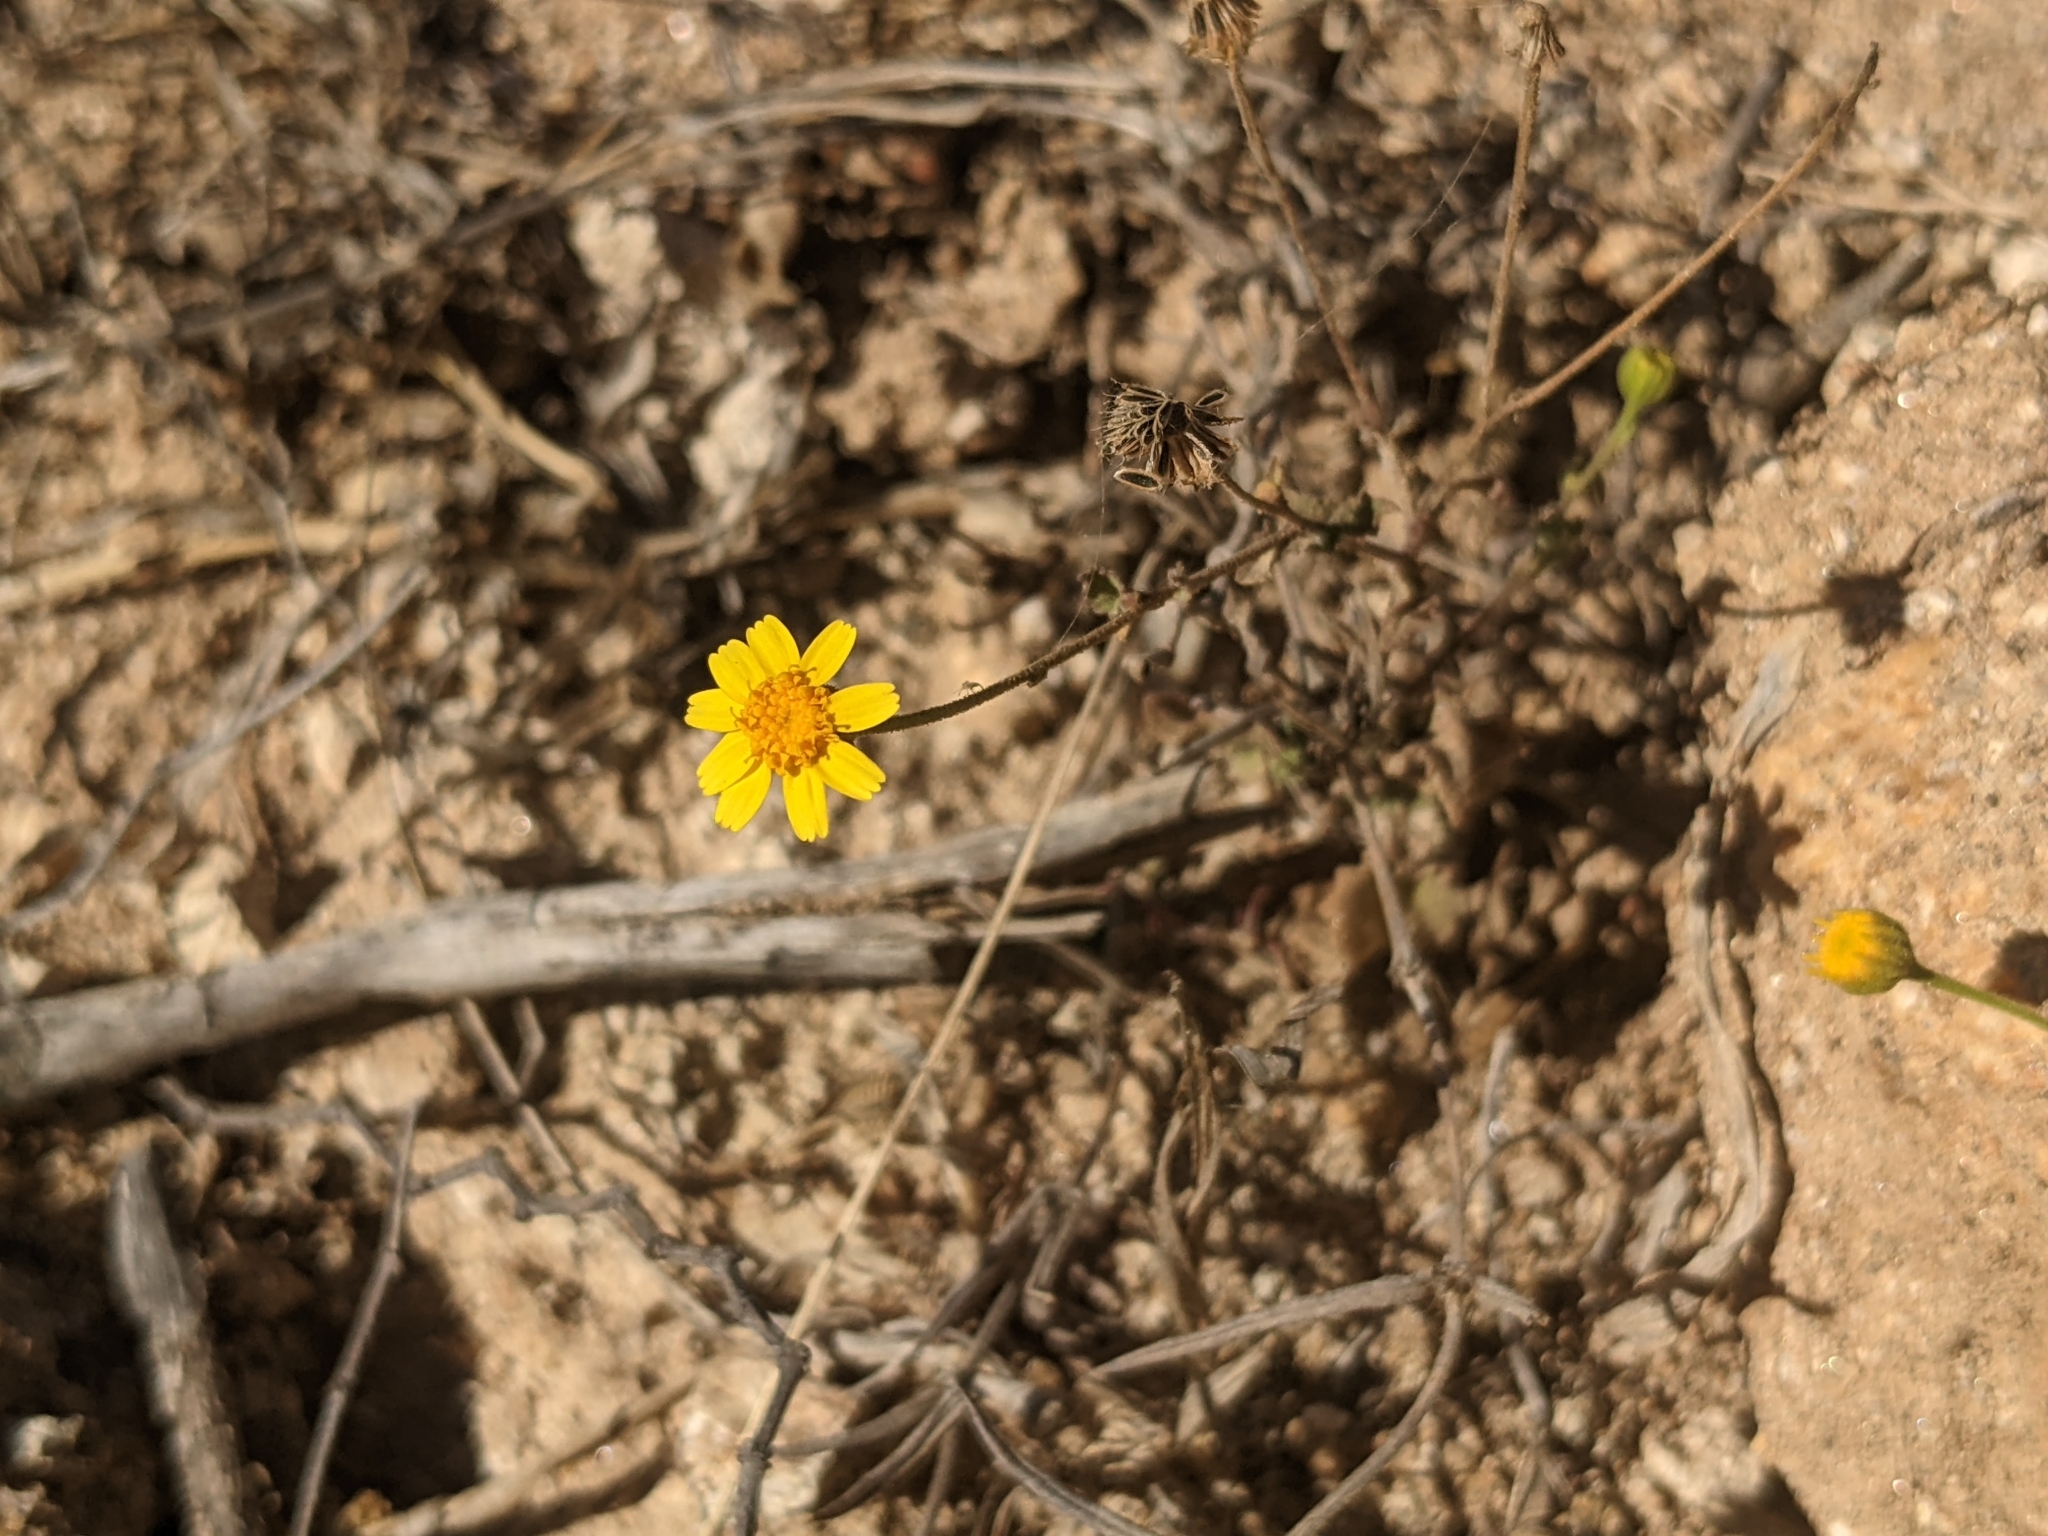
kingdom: Plantae
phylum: Tracheophyta
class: Magnoliopsida
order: Asterales
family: Asteraceae
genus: Perityle
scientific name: Perityle cuneata
